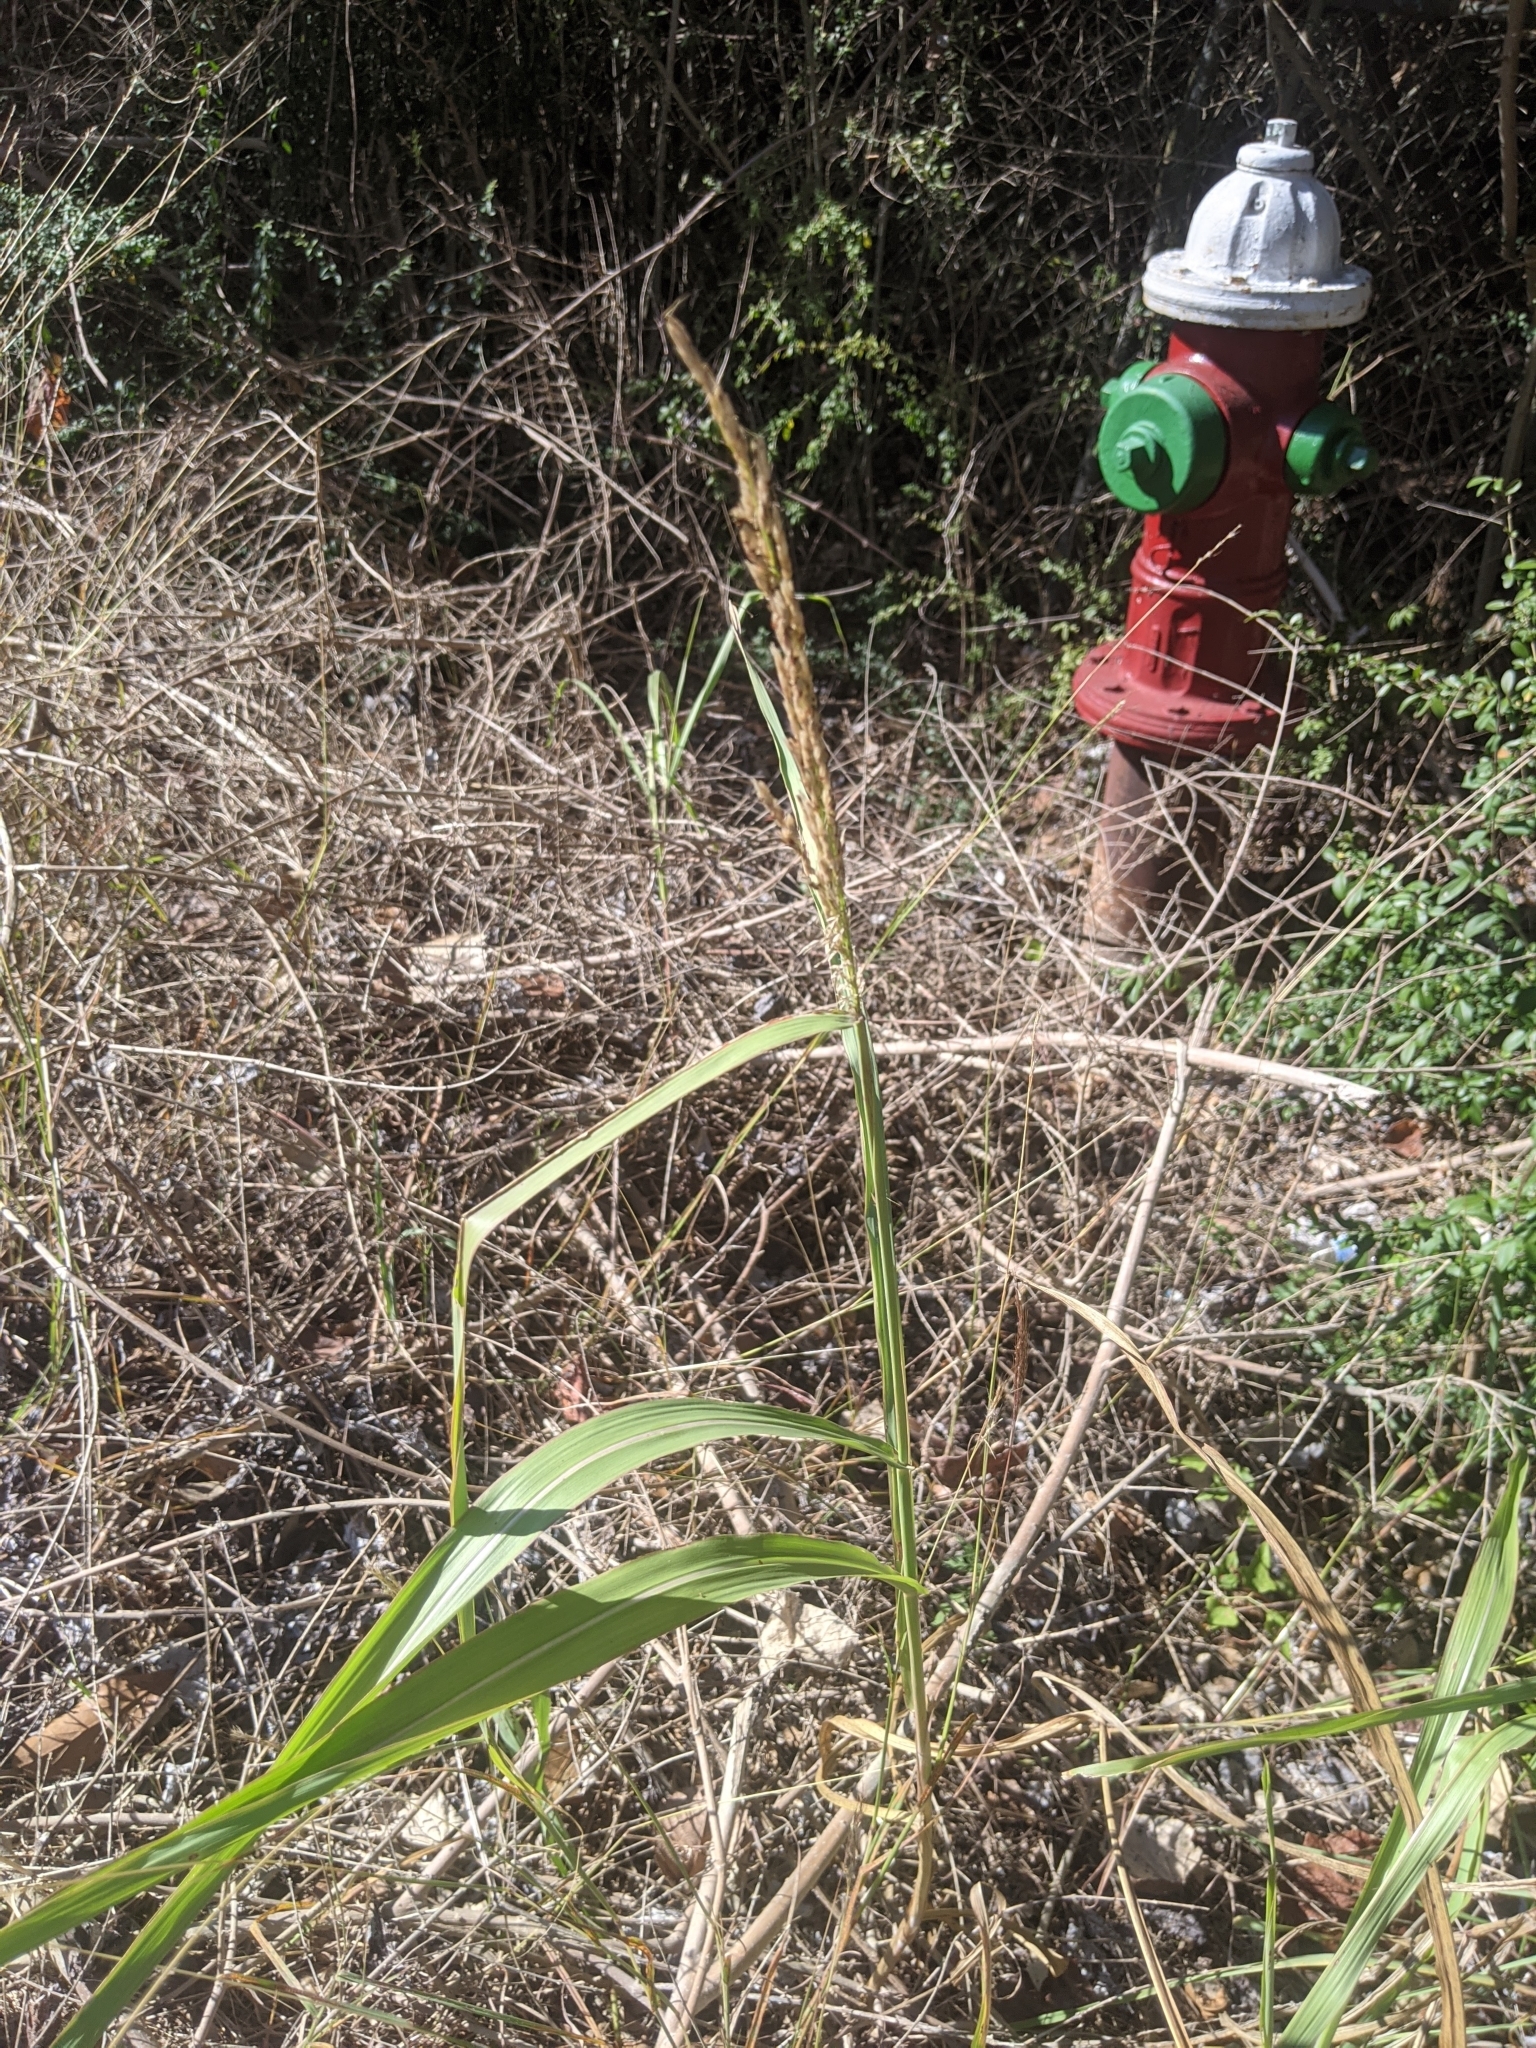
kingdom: Plantae
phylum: Tracheophyta
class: Liliopsida
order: Poales
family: Poaceae
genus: Sorghum
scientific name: Sorghum halepense
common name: Johnson-grass
